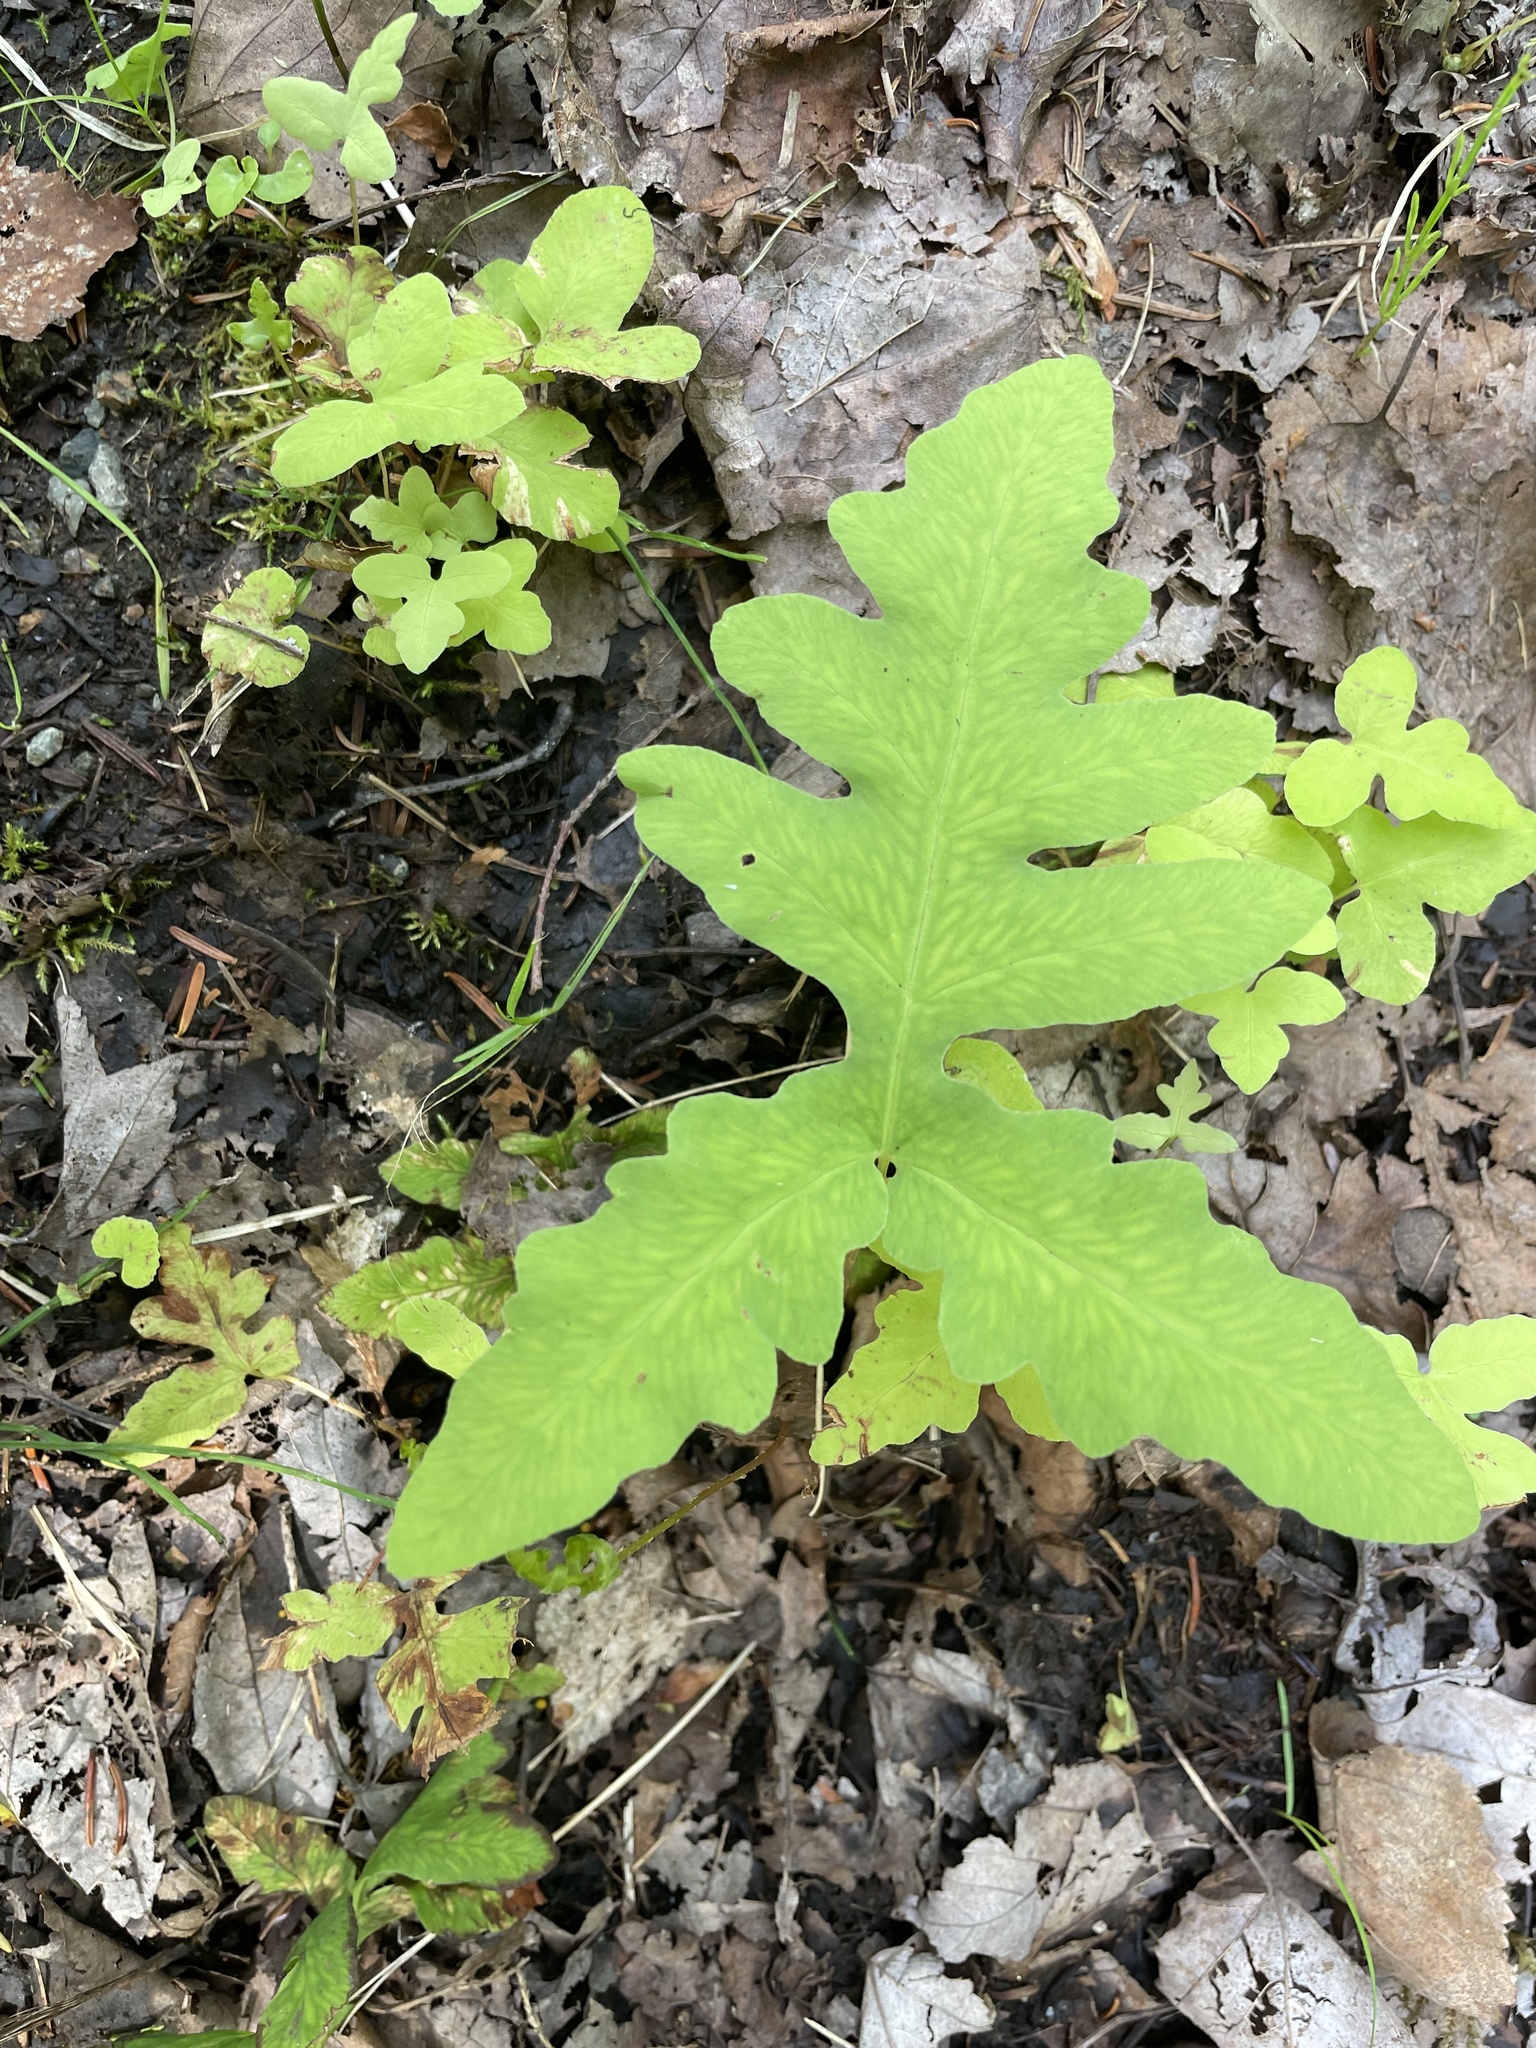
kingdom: Plantae
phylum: Tracheophyta
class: Polypodiopsida
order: Polypodiales
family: Onocleaceae
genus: Onoclea
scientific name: Onoclea sensibilis
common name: Sensitive fern
